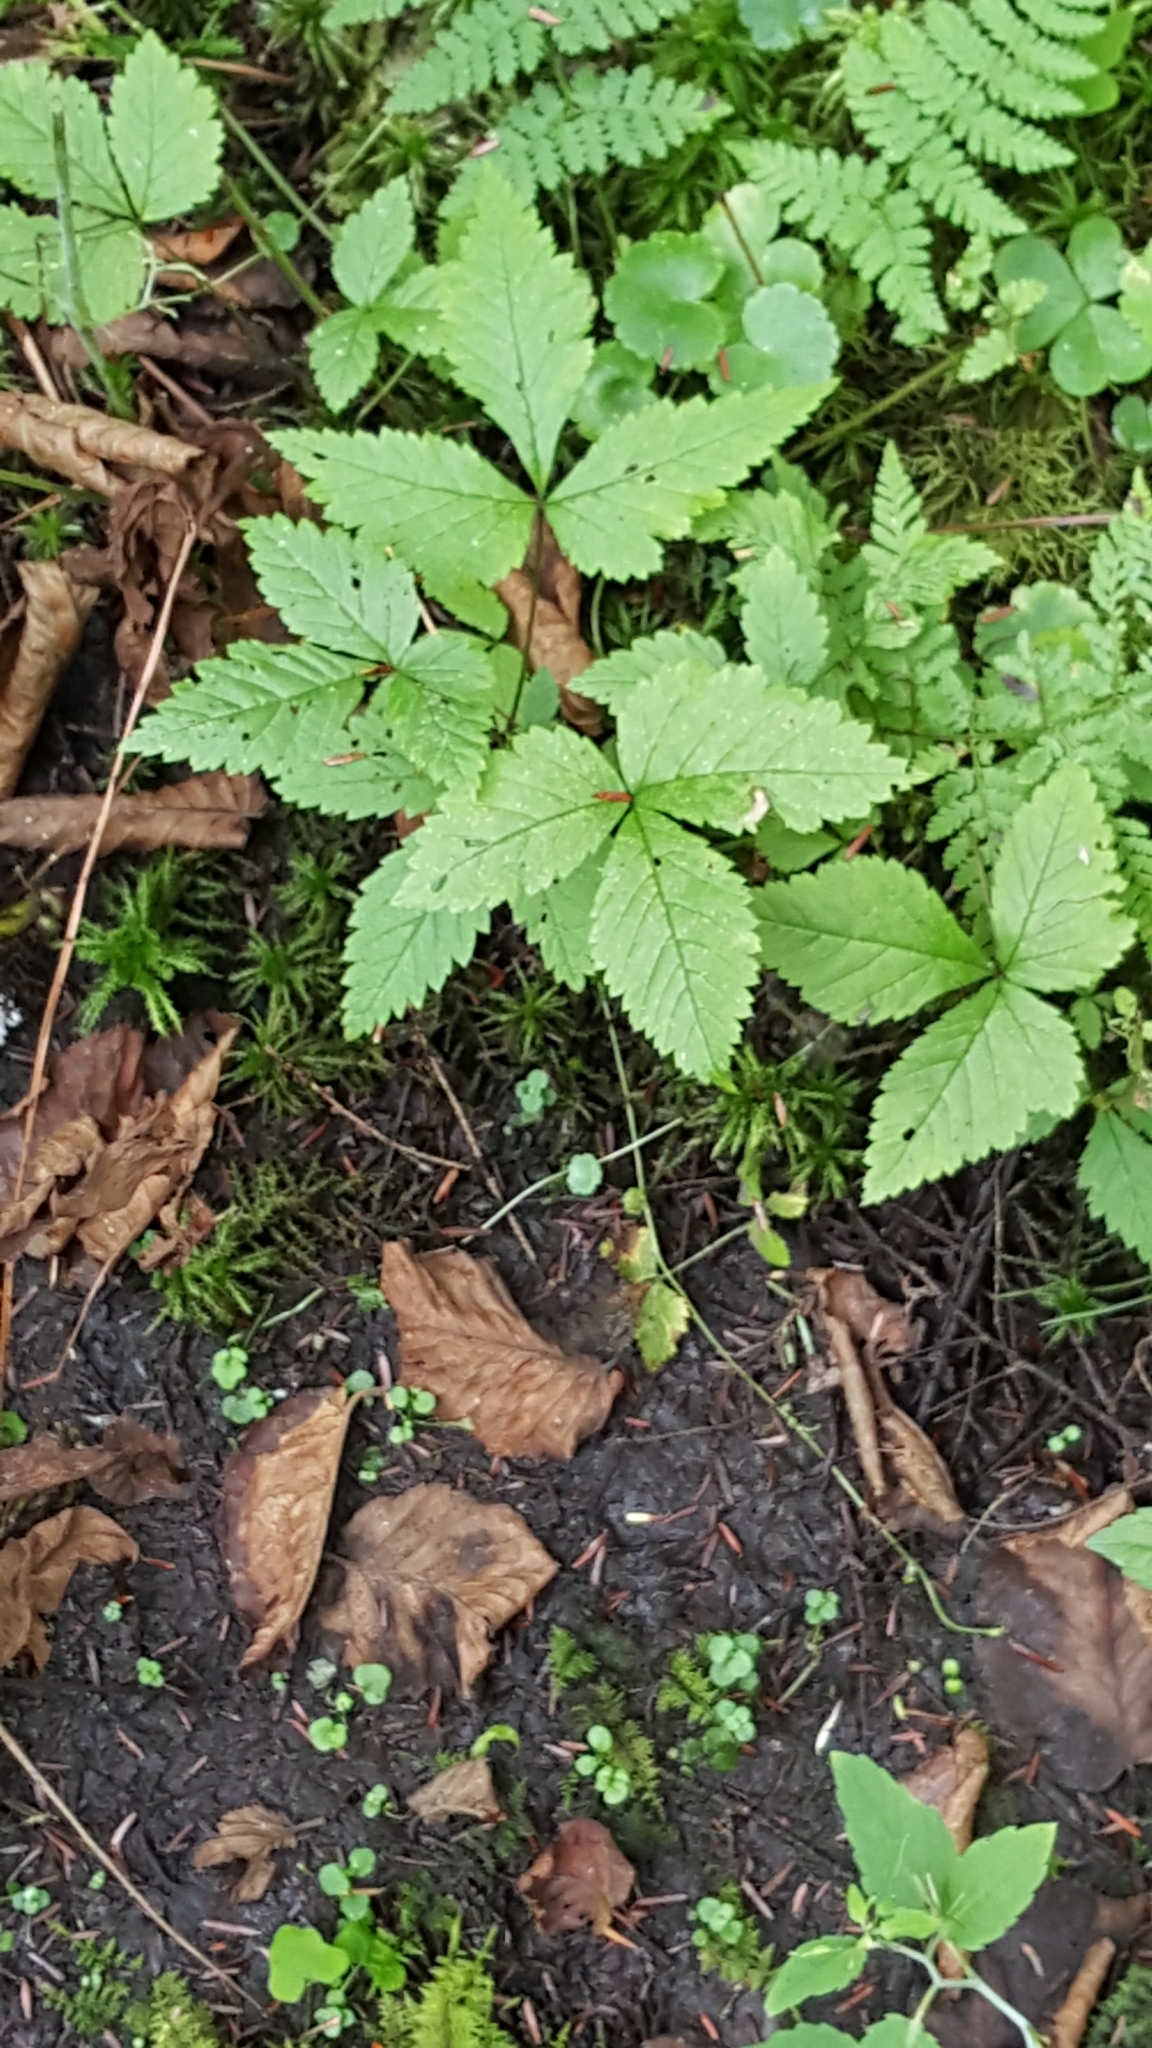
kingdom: Plantae
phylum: Tracheophyta
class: Magnoliopsida
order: Rosales
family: Rosaceae
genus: Rubus
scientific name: Rubus pubescens
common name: Dwarf raspberry
